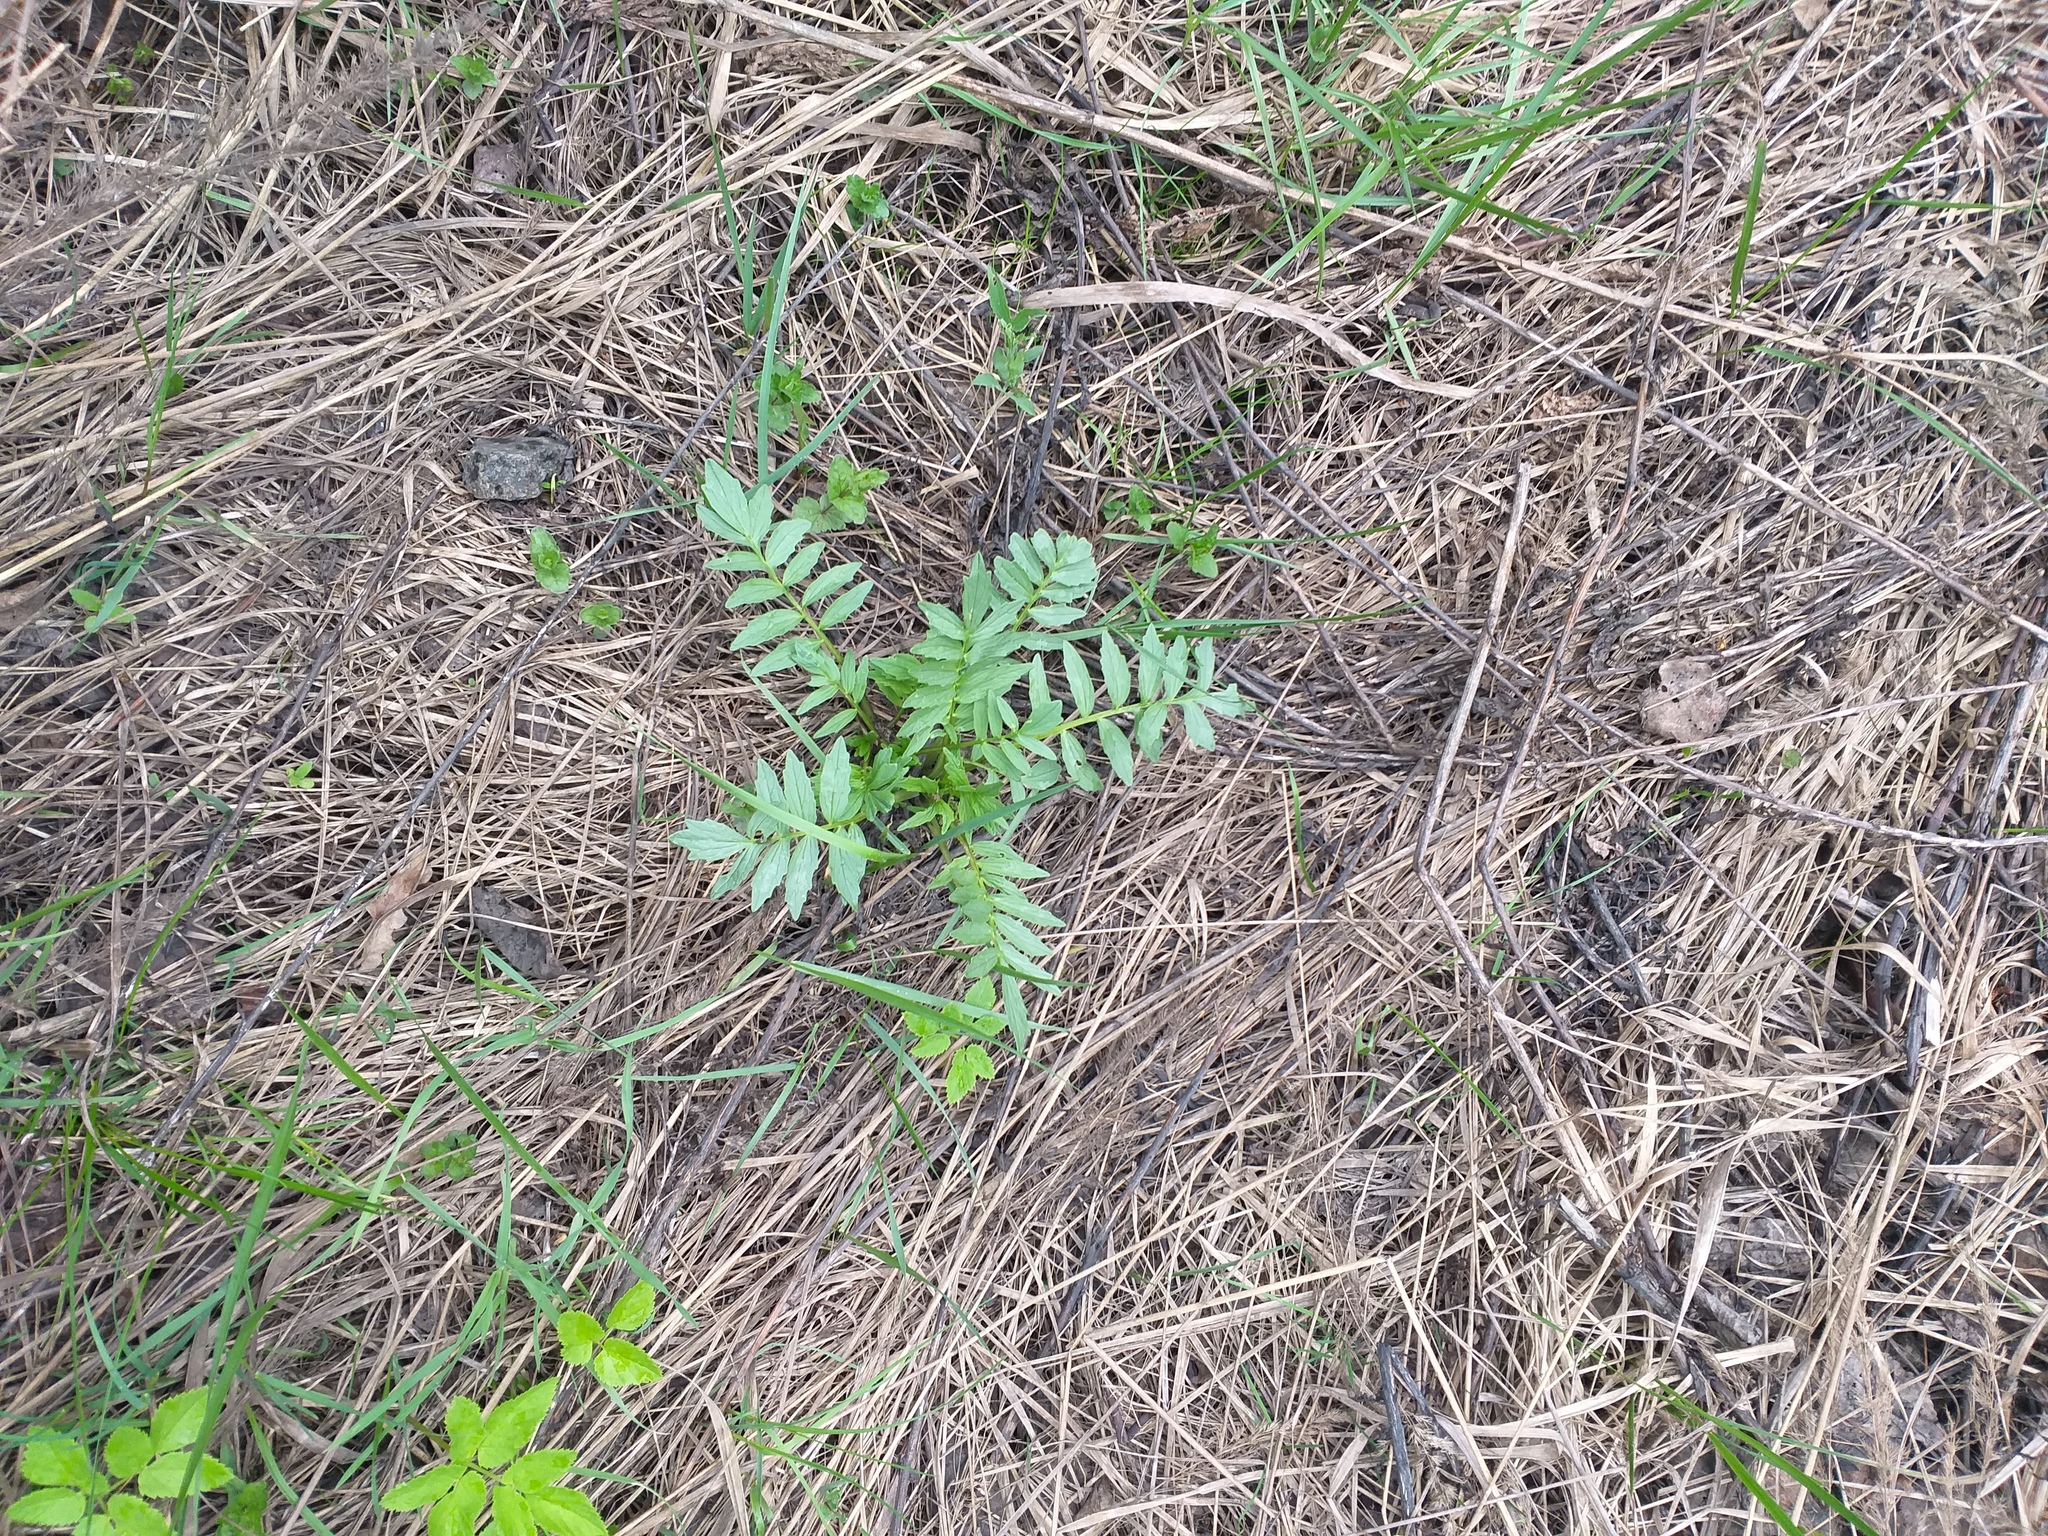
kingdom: Plantae
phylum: Tracheophyta
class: Magnoliopsida
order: Dipsacales
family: Caprifoliaceae
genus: Valeriana
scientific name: Valeriana officinalis
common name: Common valerian
